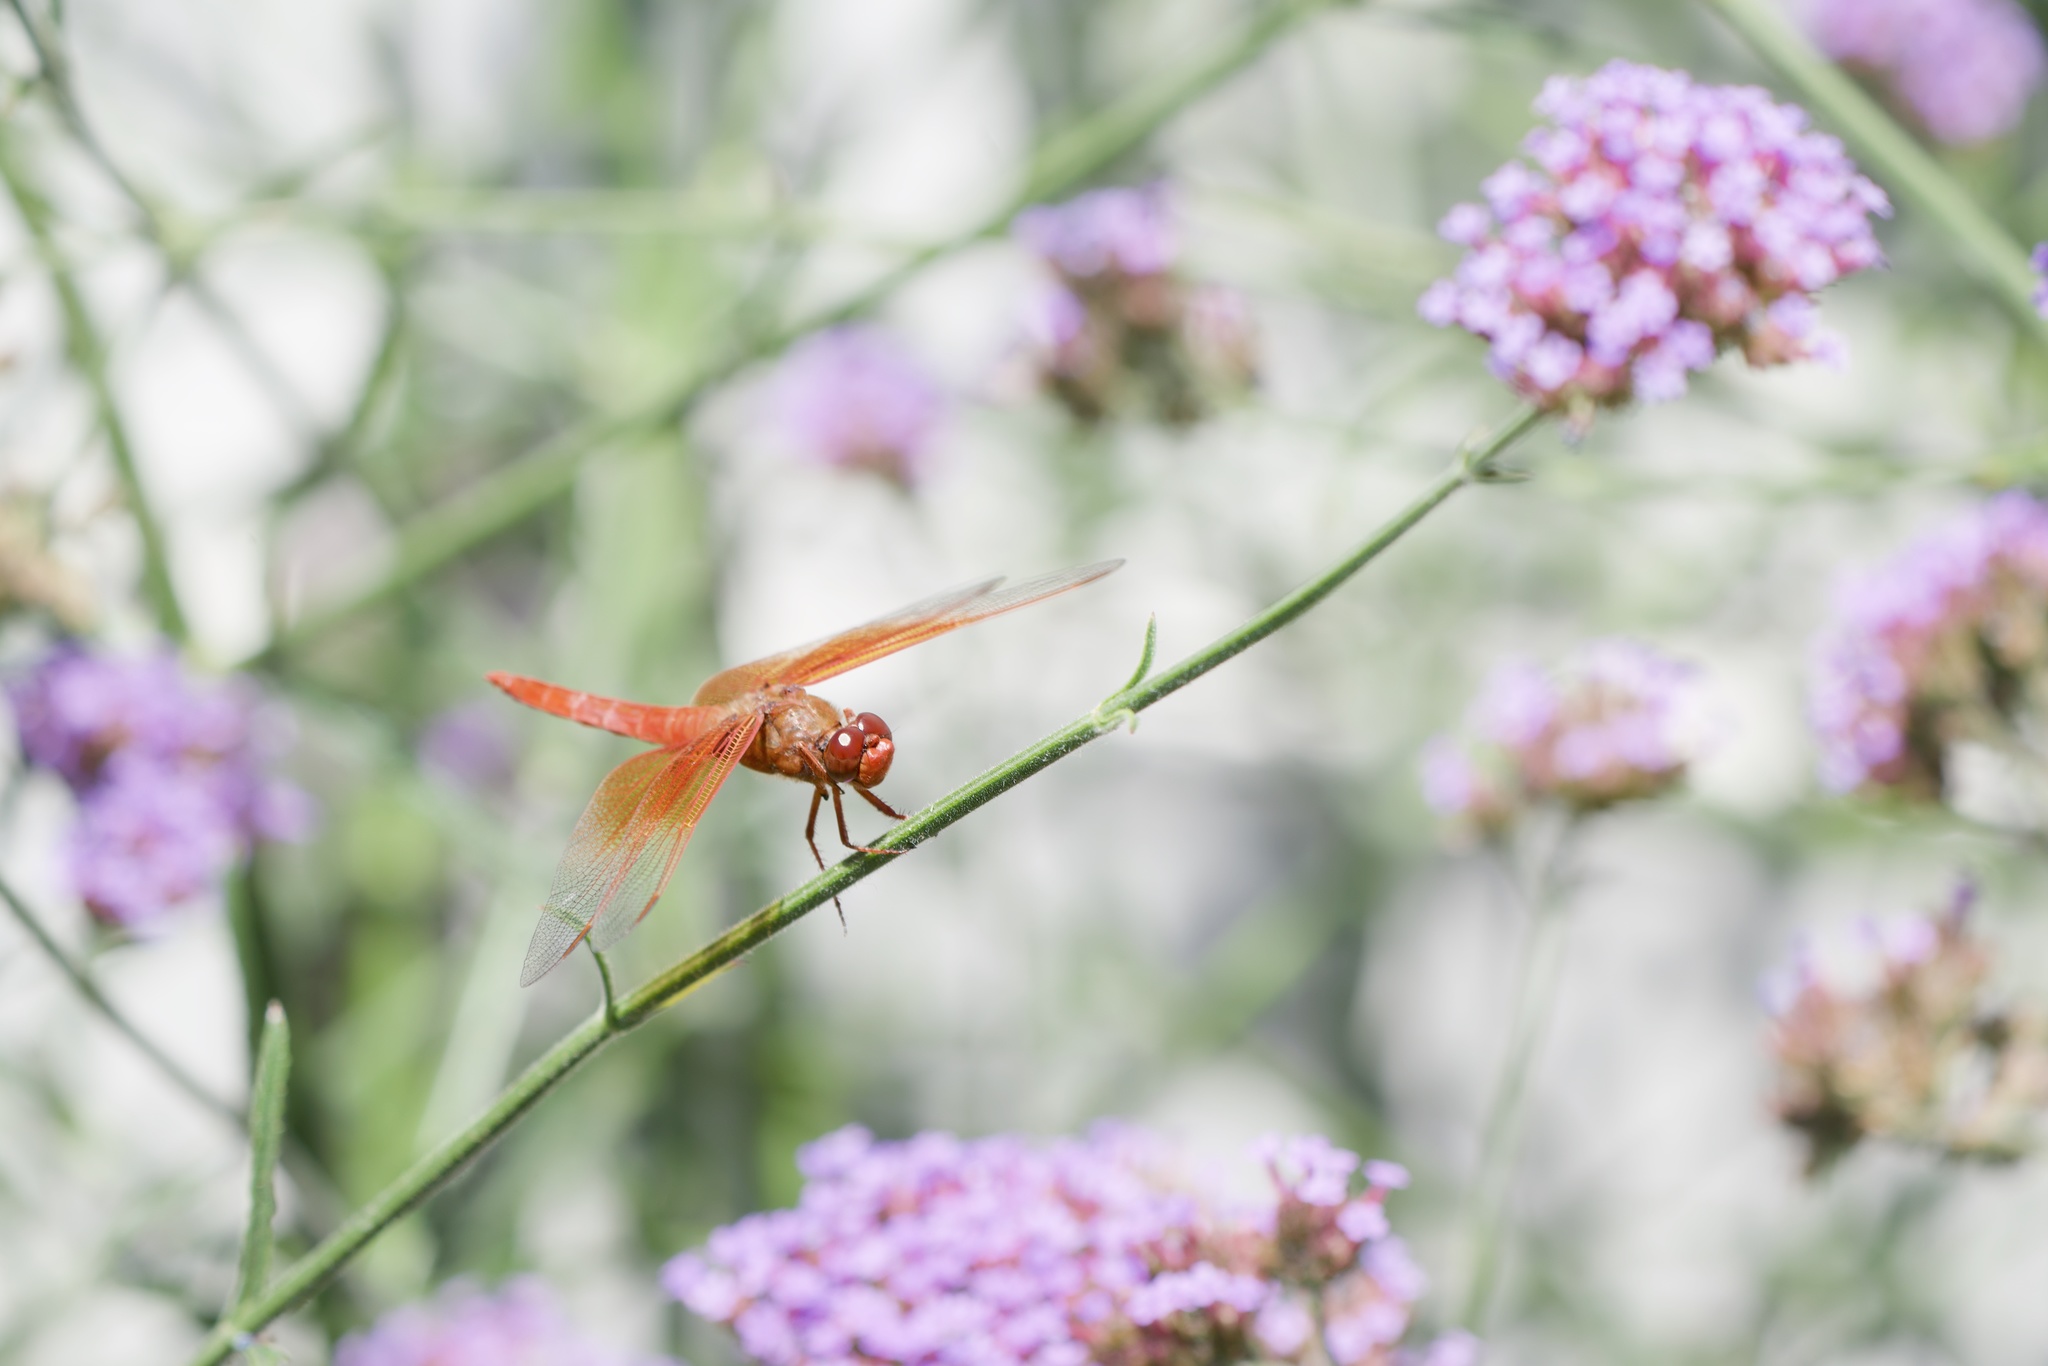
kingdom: Animalia
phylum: Arthropoda
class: Insecta
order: Odonata
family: Libellulidae
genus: Libellula
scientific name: Libellula saturata
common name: Flame skimmer
